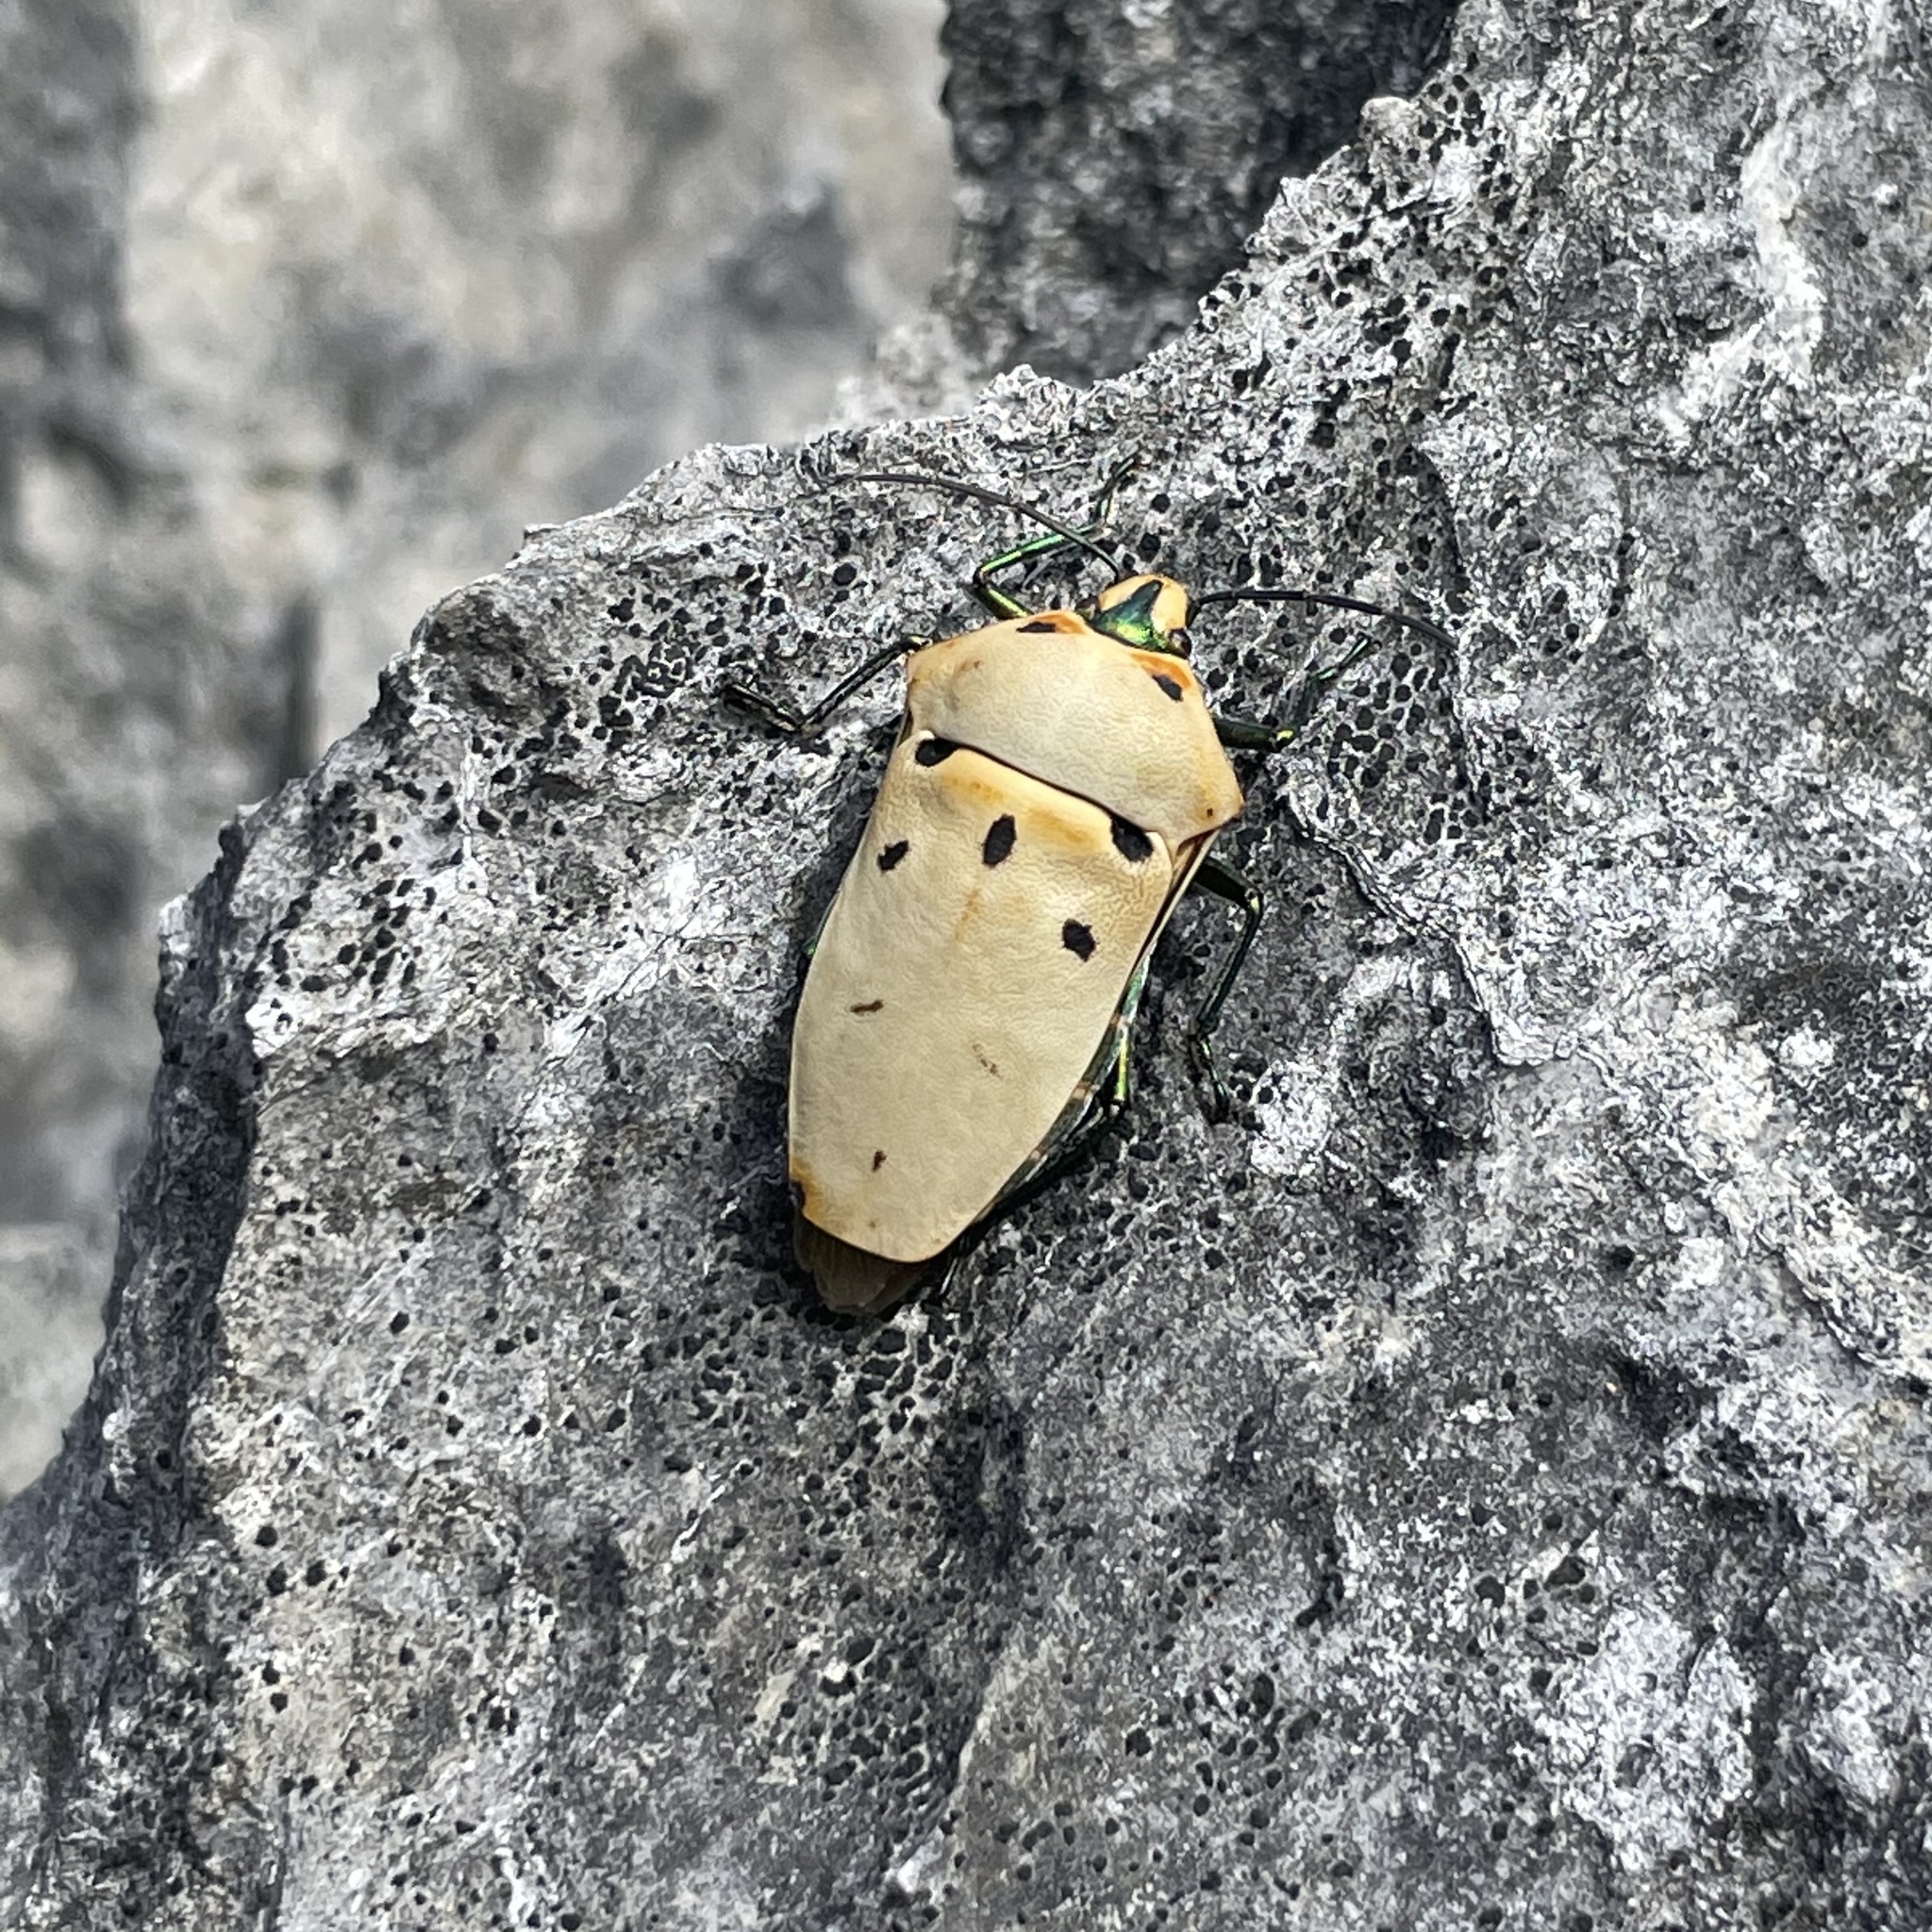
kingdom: Animalia
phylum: Arthropoda
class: Insecta
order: Hemiptera
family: Scutelleridae
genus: Cantao
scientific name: Cantao ocellatus
